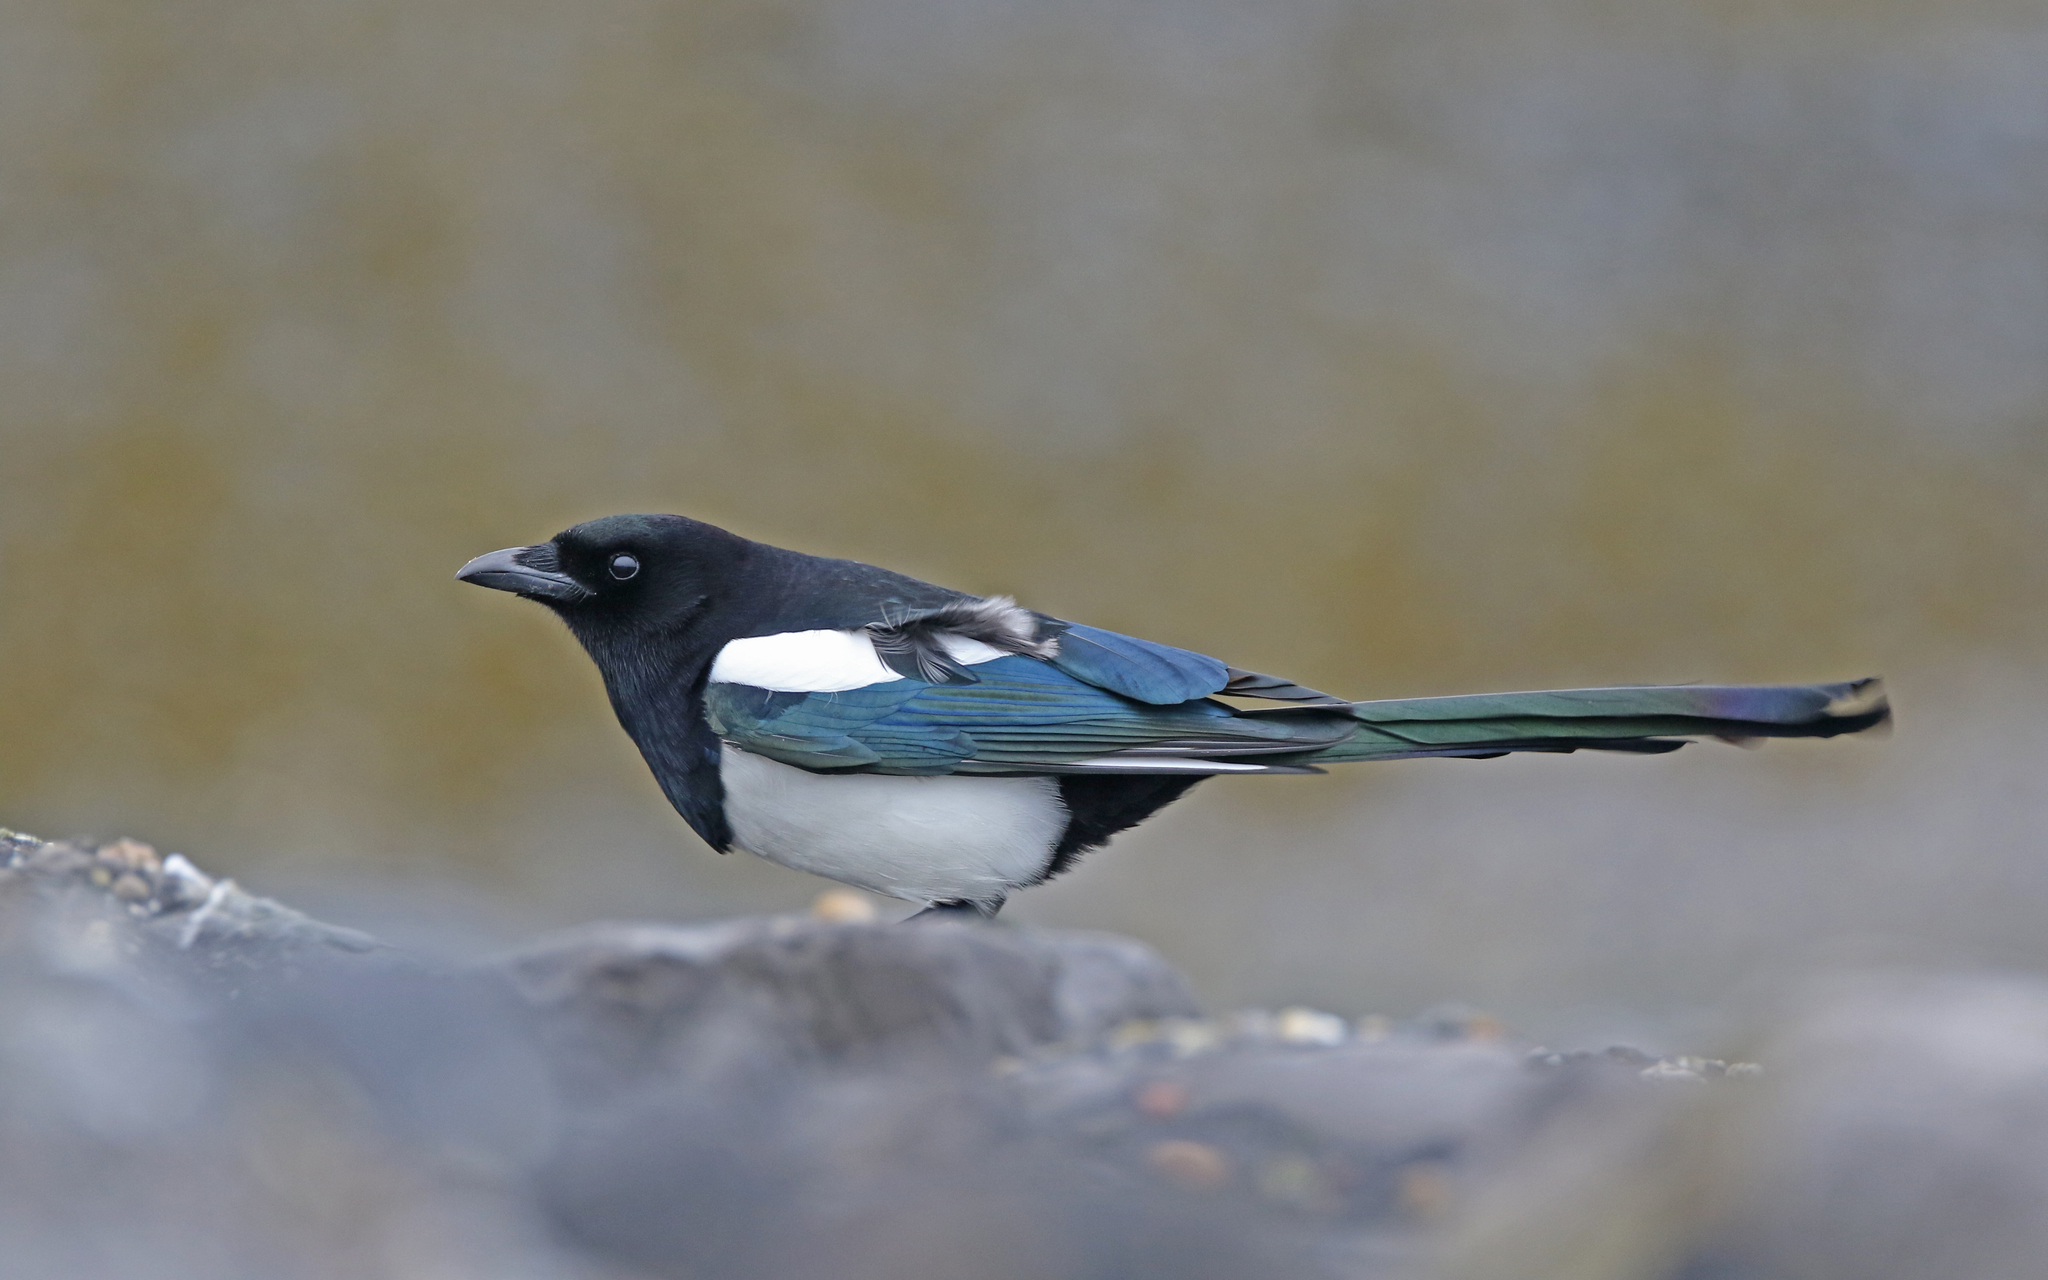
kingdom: Animalia
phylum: Chordata
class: Aves
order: Passeriformes
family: Corvidae
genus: Pica
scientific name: Pica pica
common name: Eurasian magpie
